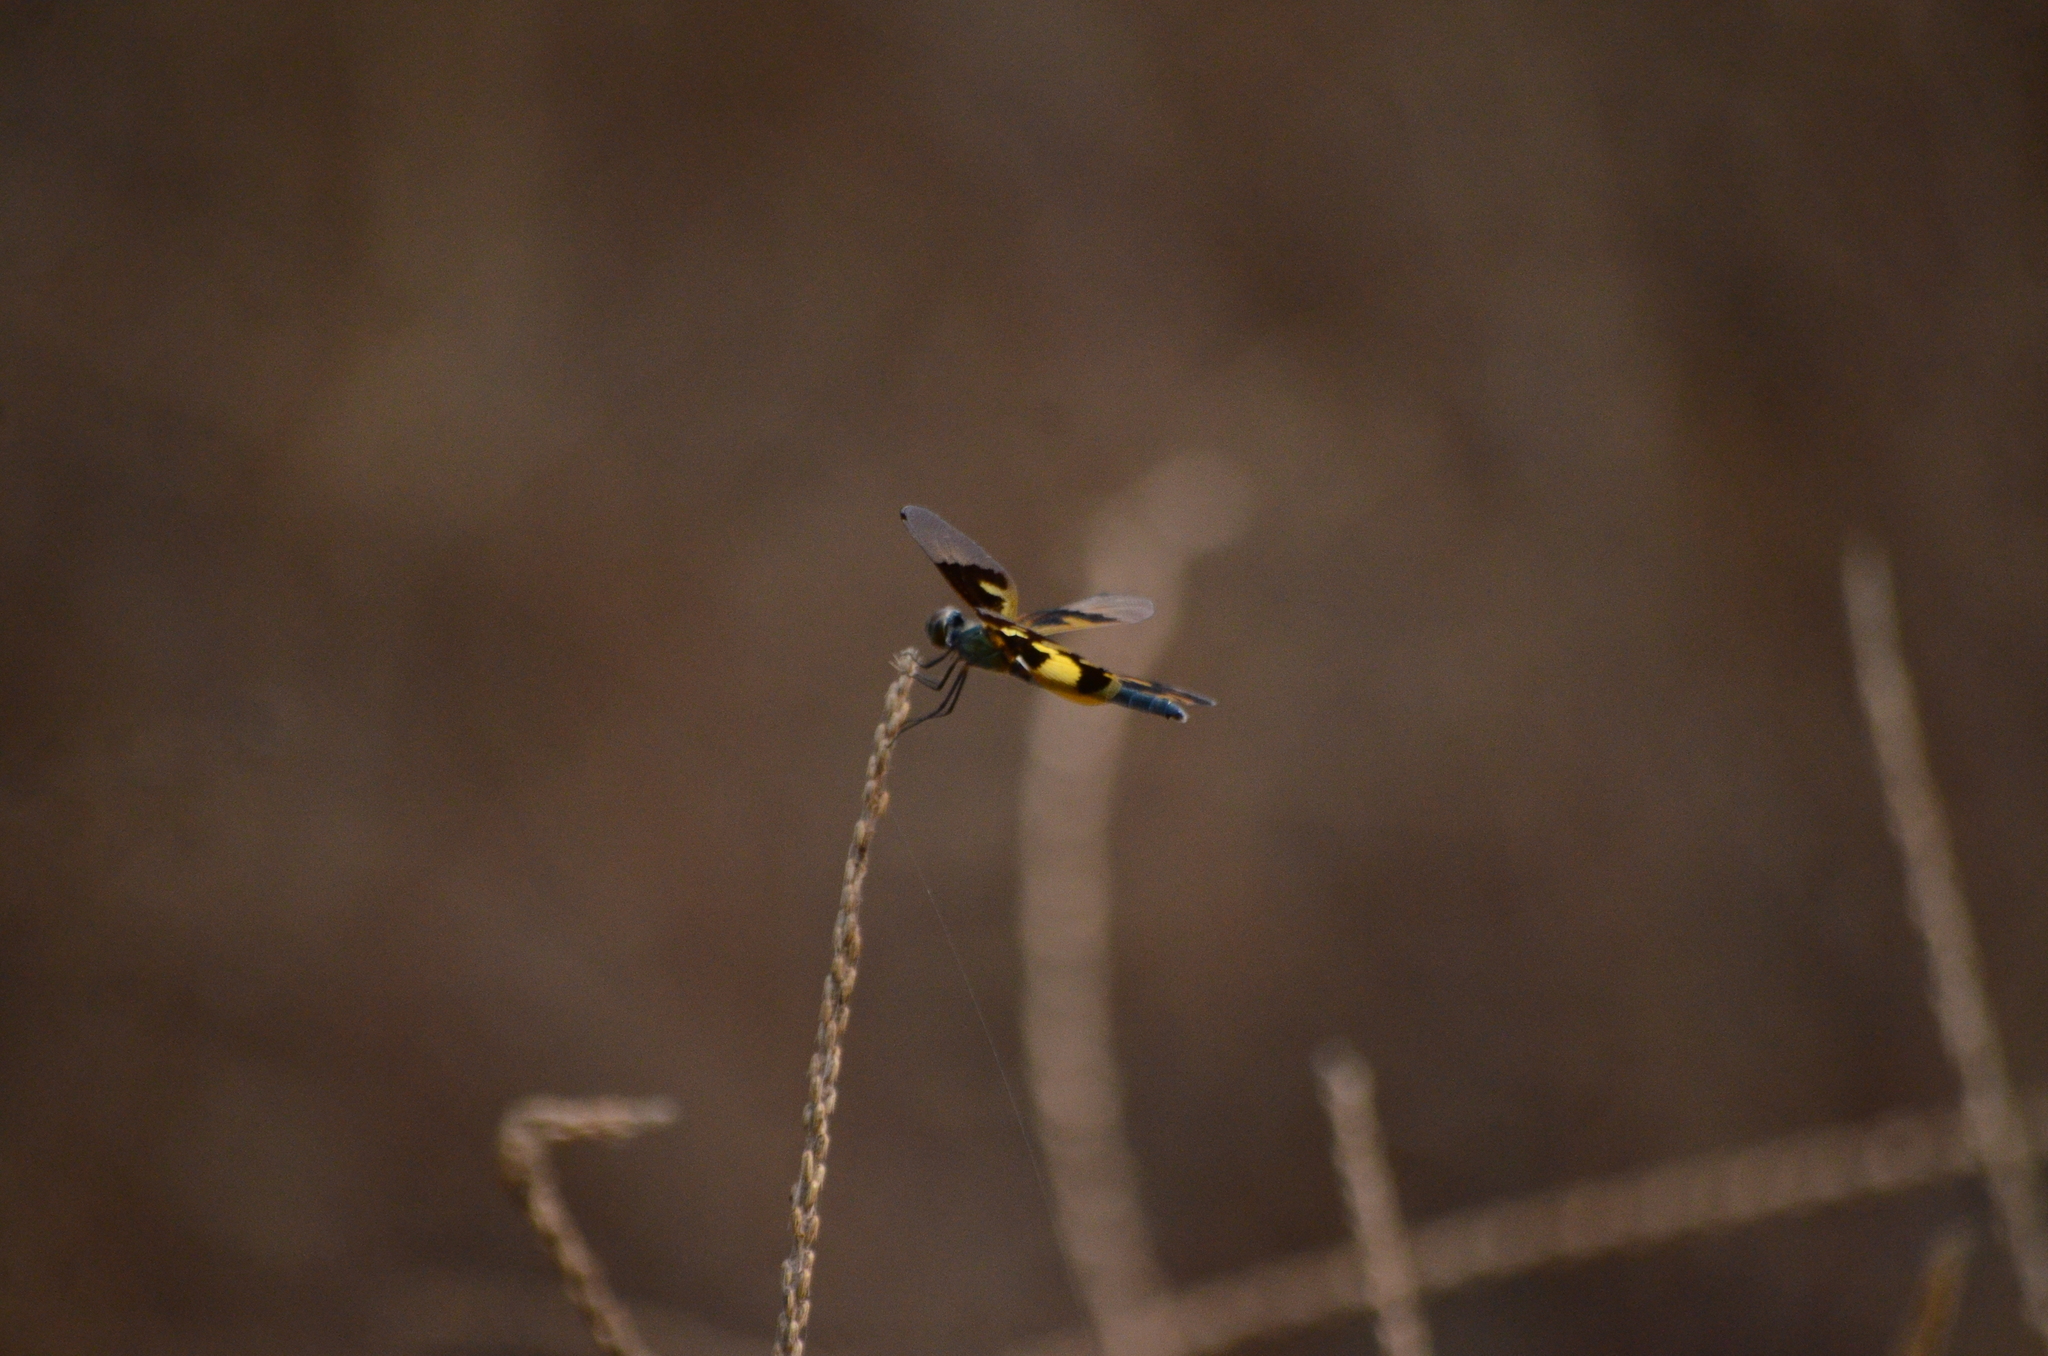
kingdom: Animalia
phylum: Arthropoda
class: Insecta
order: Odonata
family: Libellulidae
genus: Rhyothemis
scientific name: Rhyothemis variegata
